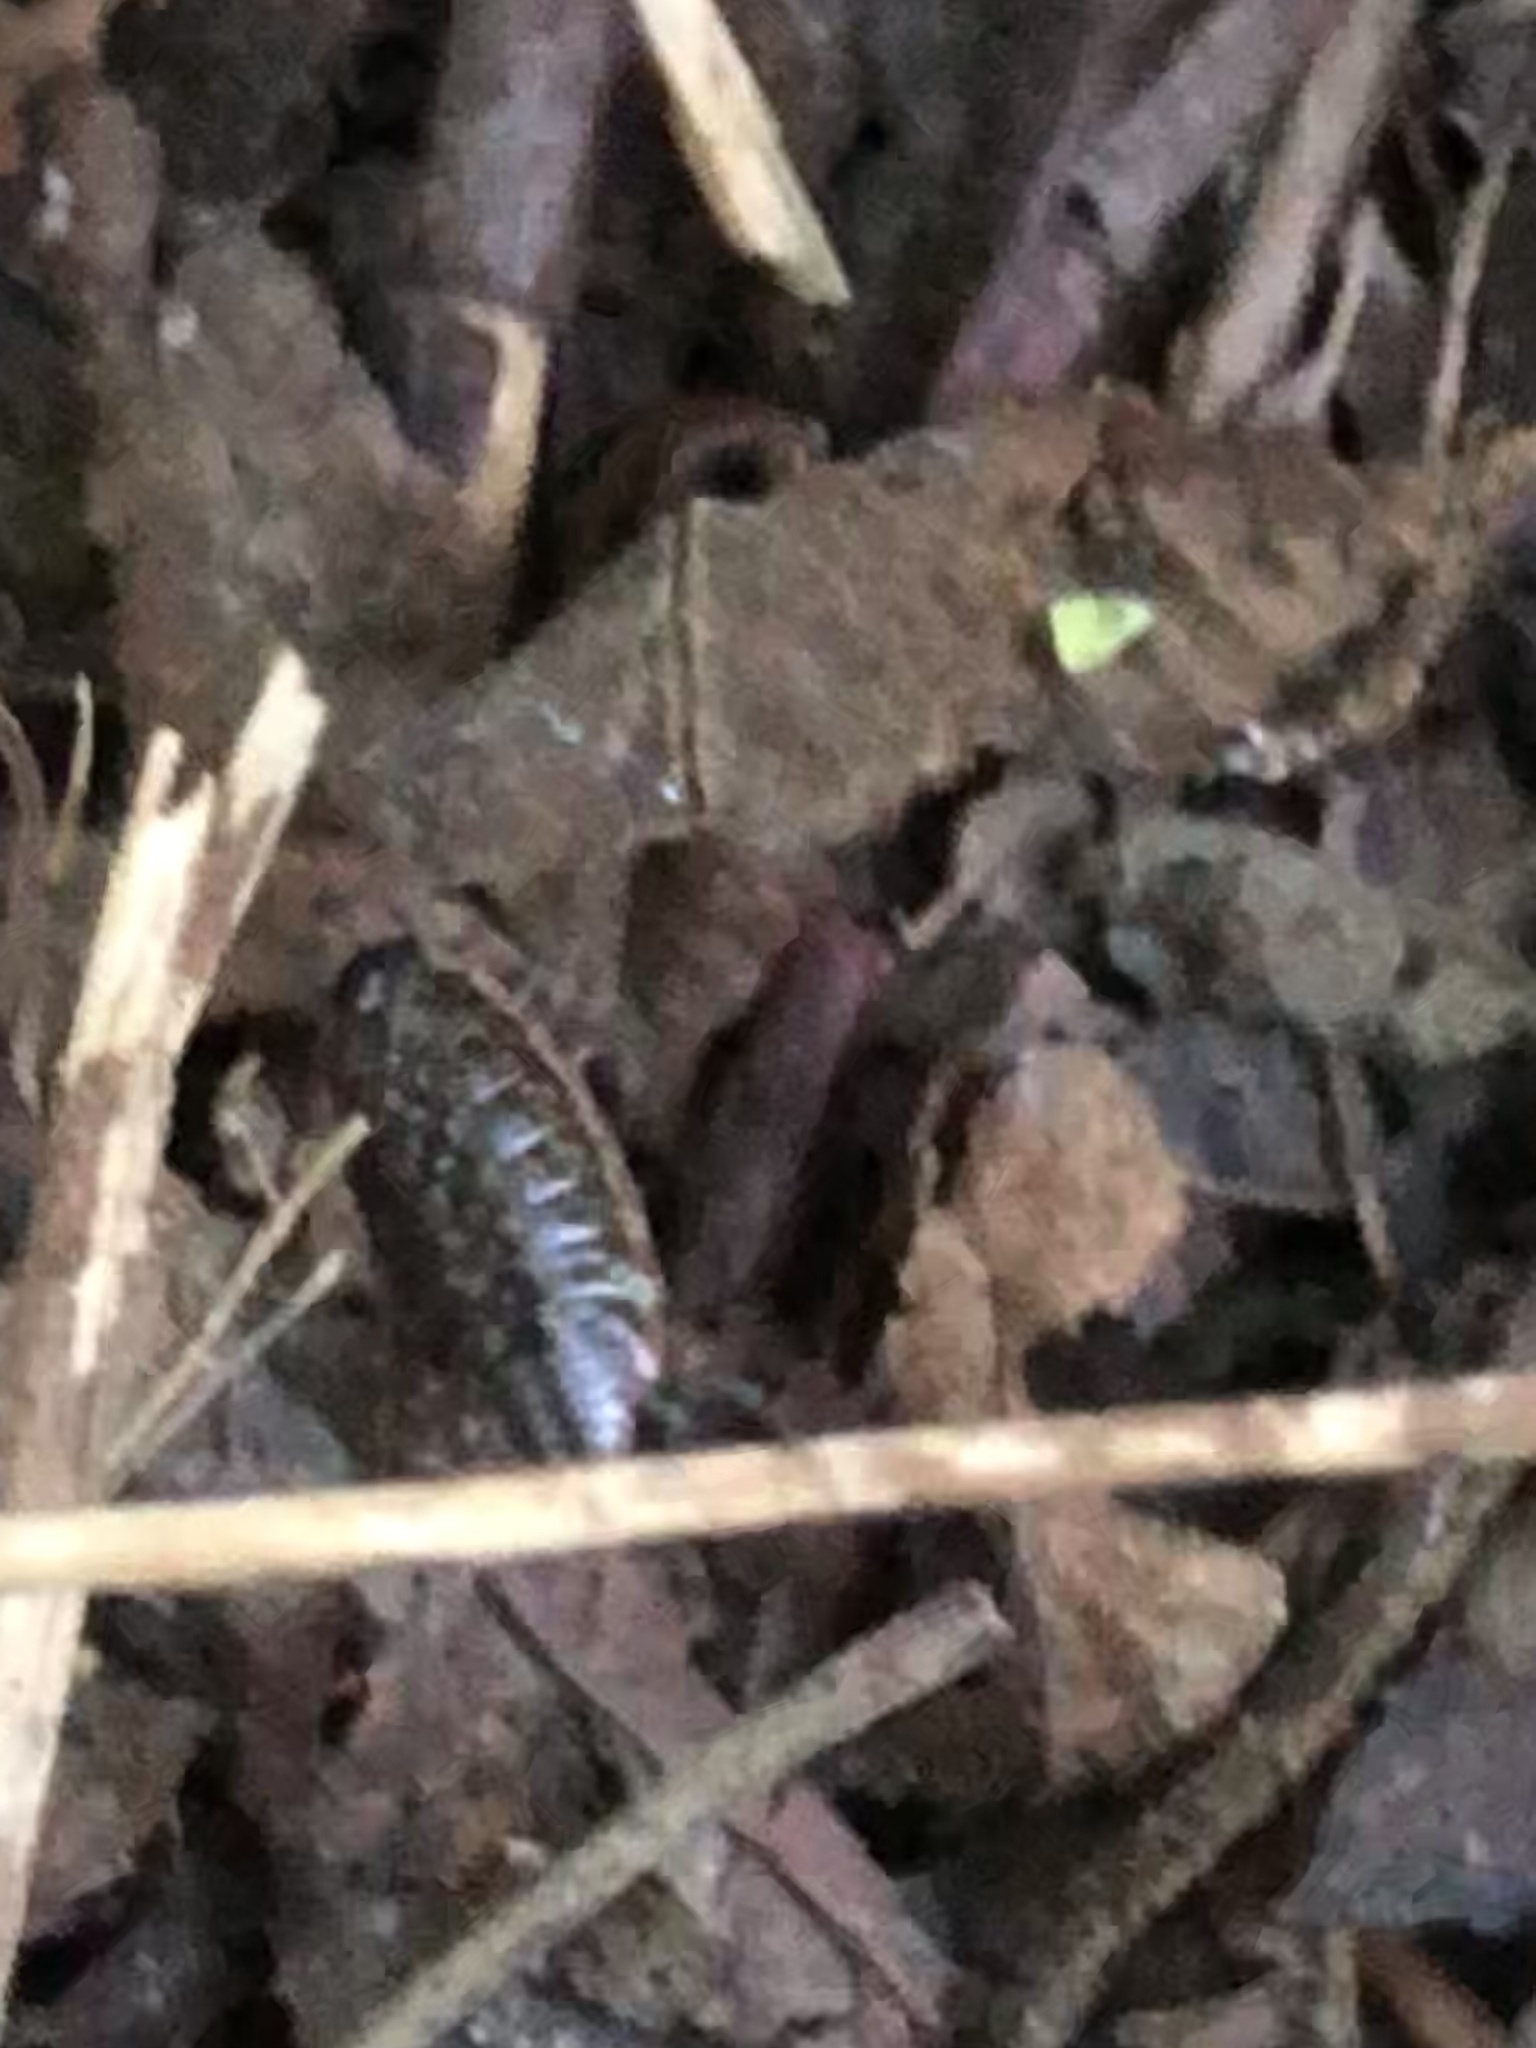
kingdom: Animalia
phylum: Arthropoda
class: Malacostraca
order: Isopoda
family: Philosciidae
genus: Philoscia
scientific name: Philoscia muscorum
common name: Common striped woodlouse
